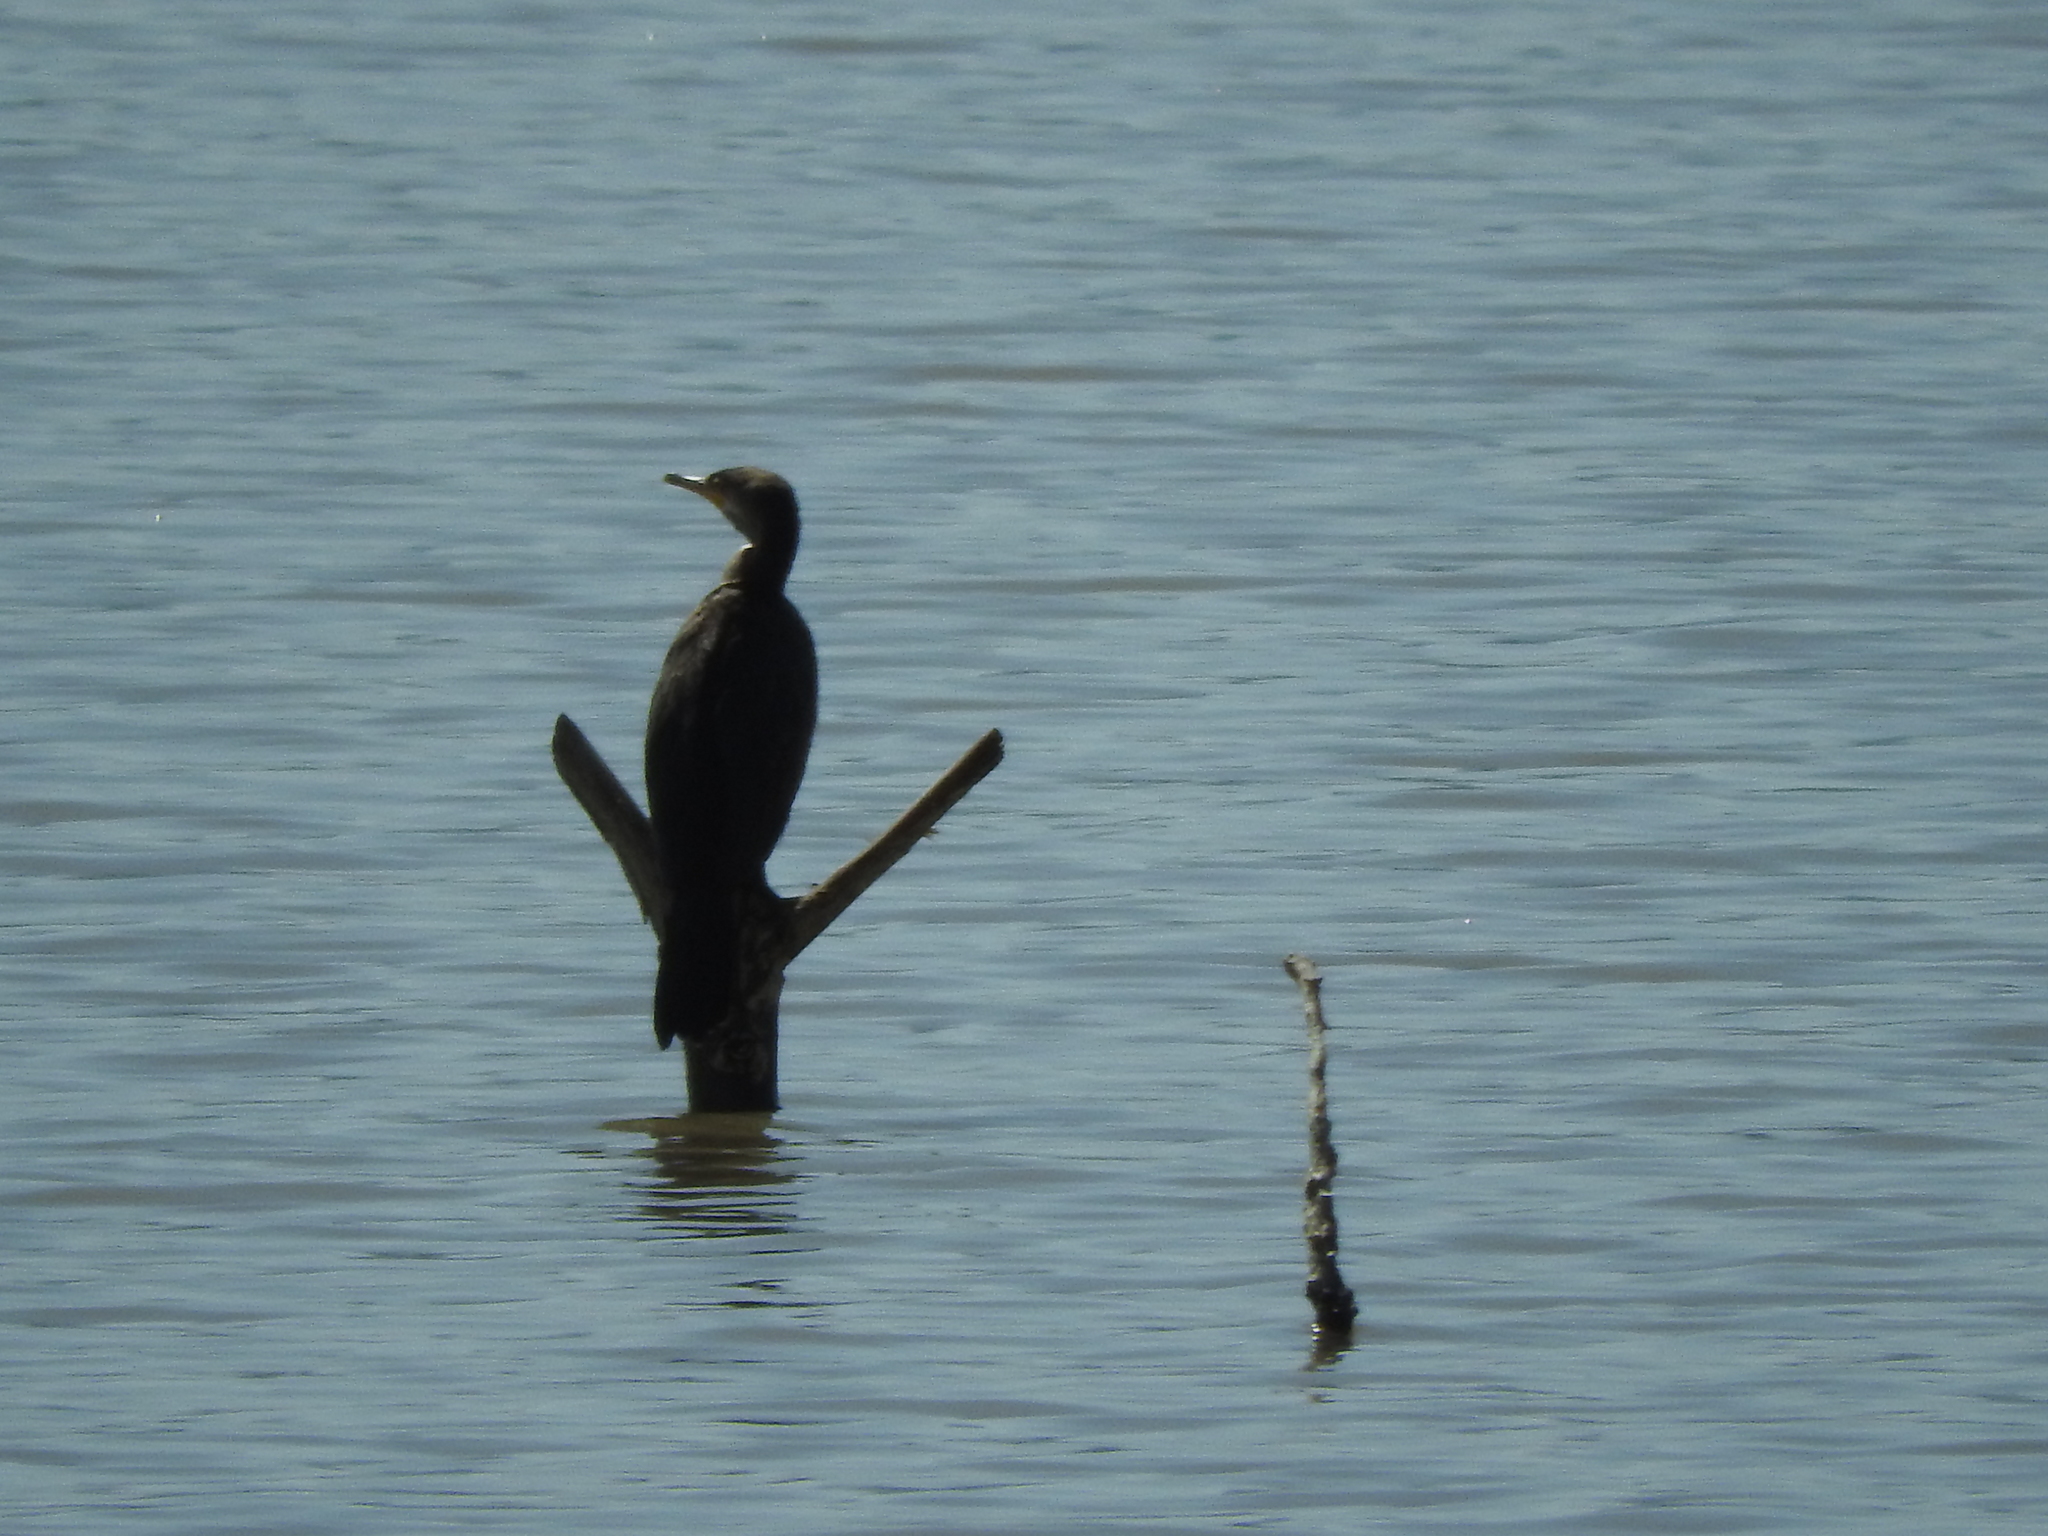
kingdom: Animalia
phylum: Chordata
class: Aves
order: Suliformes
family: Phalacrocoracidae
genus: Phalacrocorax
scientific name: Phalacrocorax brasilianus
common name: Neotropic cormorant
